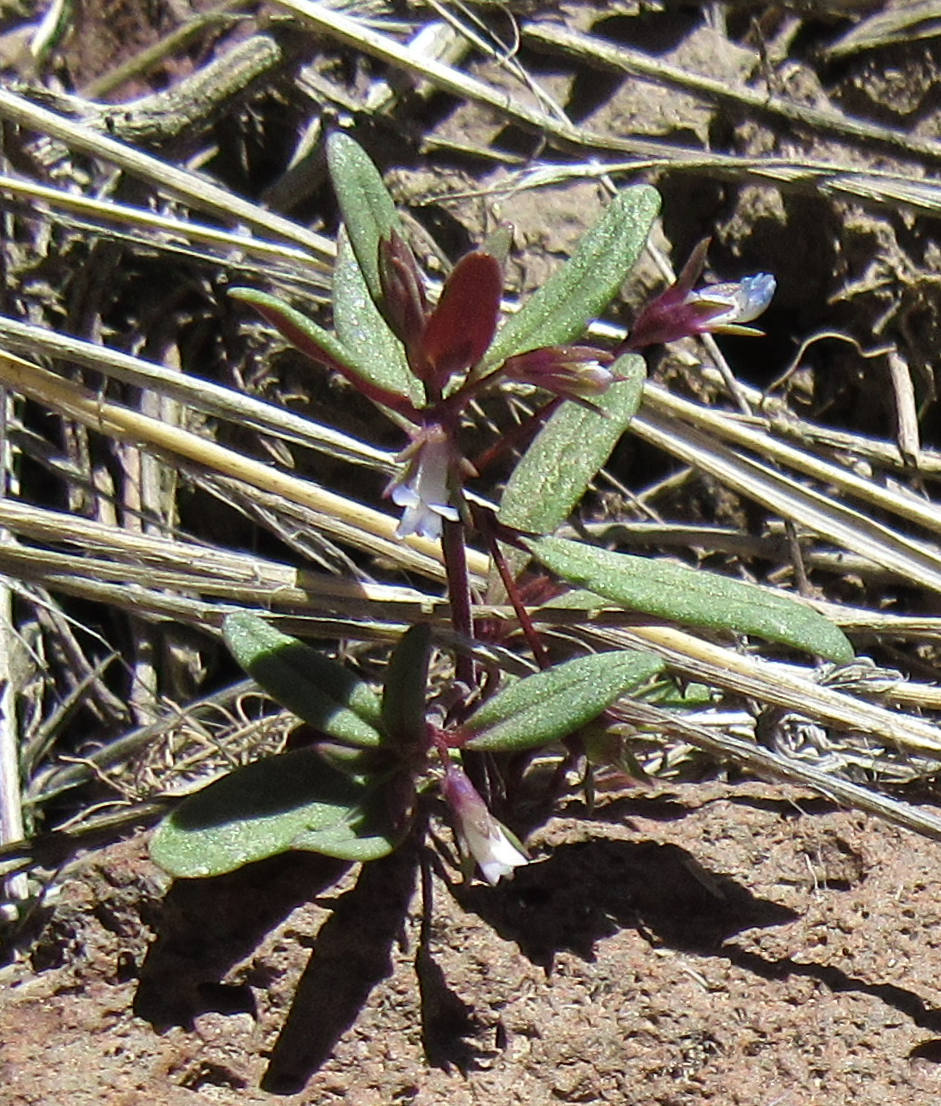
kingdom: Plantae
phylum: Tracheophyta
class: Magnoliopsida
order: Lamiales
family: Plantaginaceae
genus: Collinsia
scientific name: Collinsia parviflora
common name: Blue-lips
